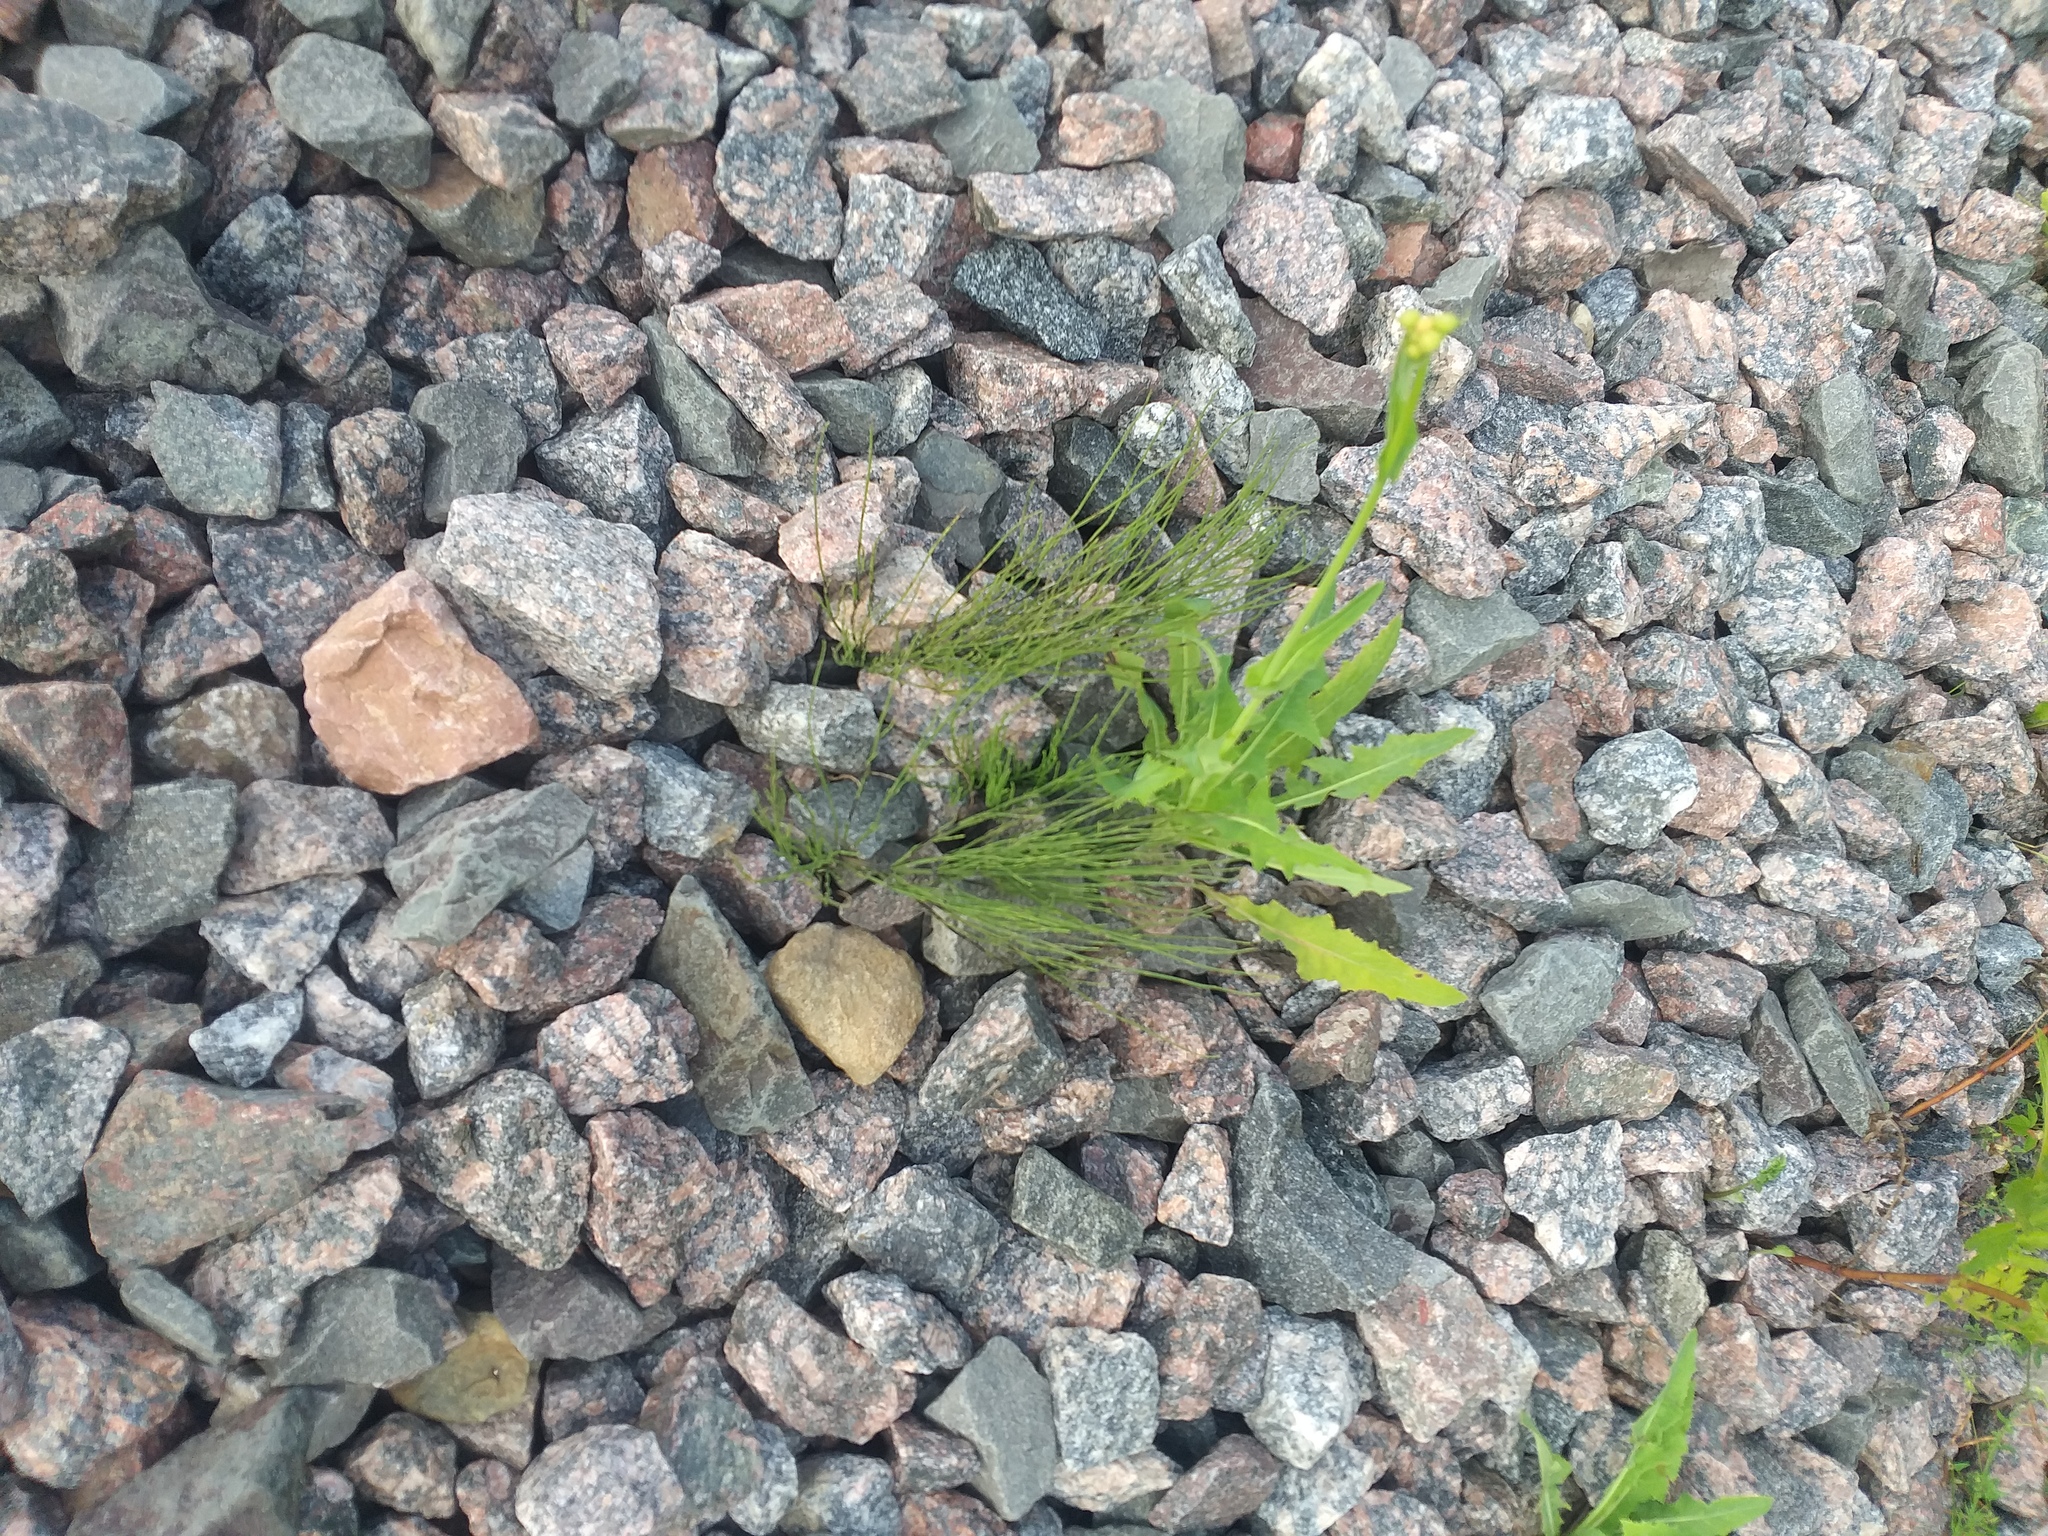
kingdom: Plantae
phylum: Tracheophyta
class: Polypodiopsida
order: Equisetales
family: Equisetaceae
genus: Equisetum
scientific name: Equisetum arvense
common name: Field horsetail
